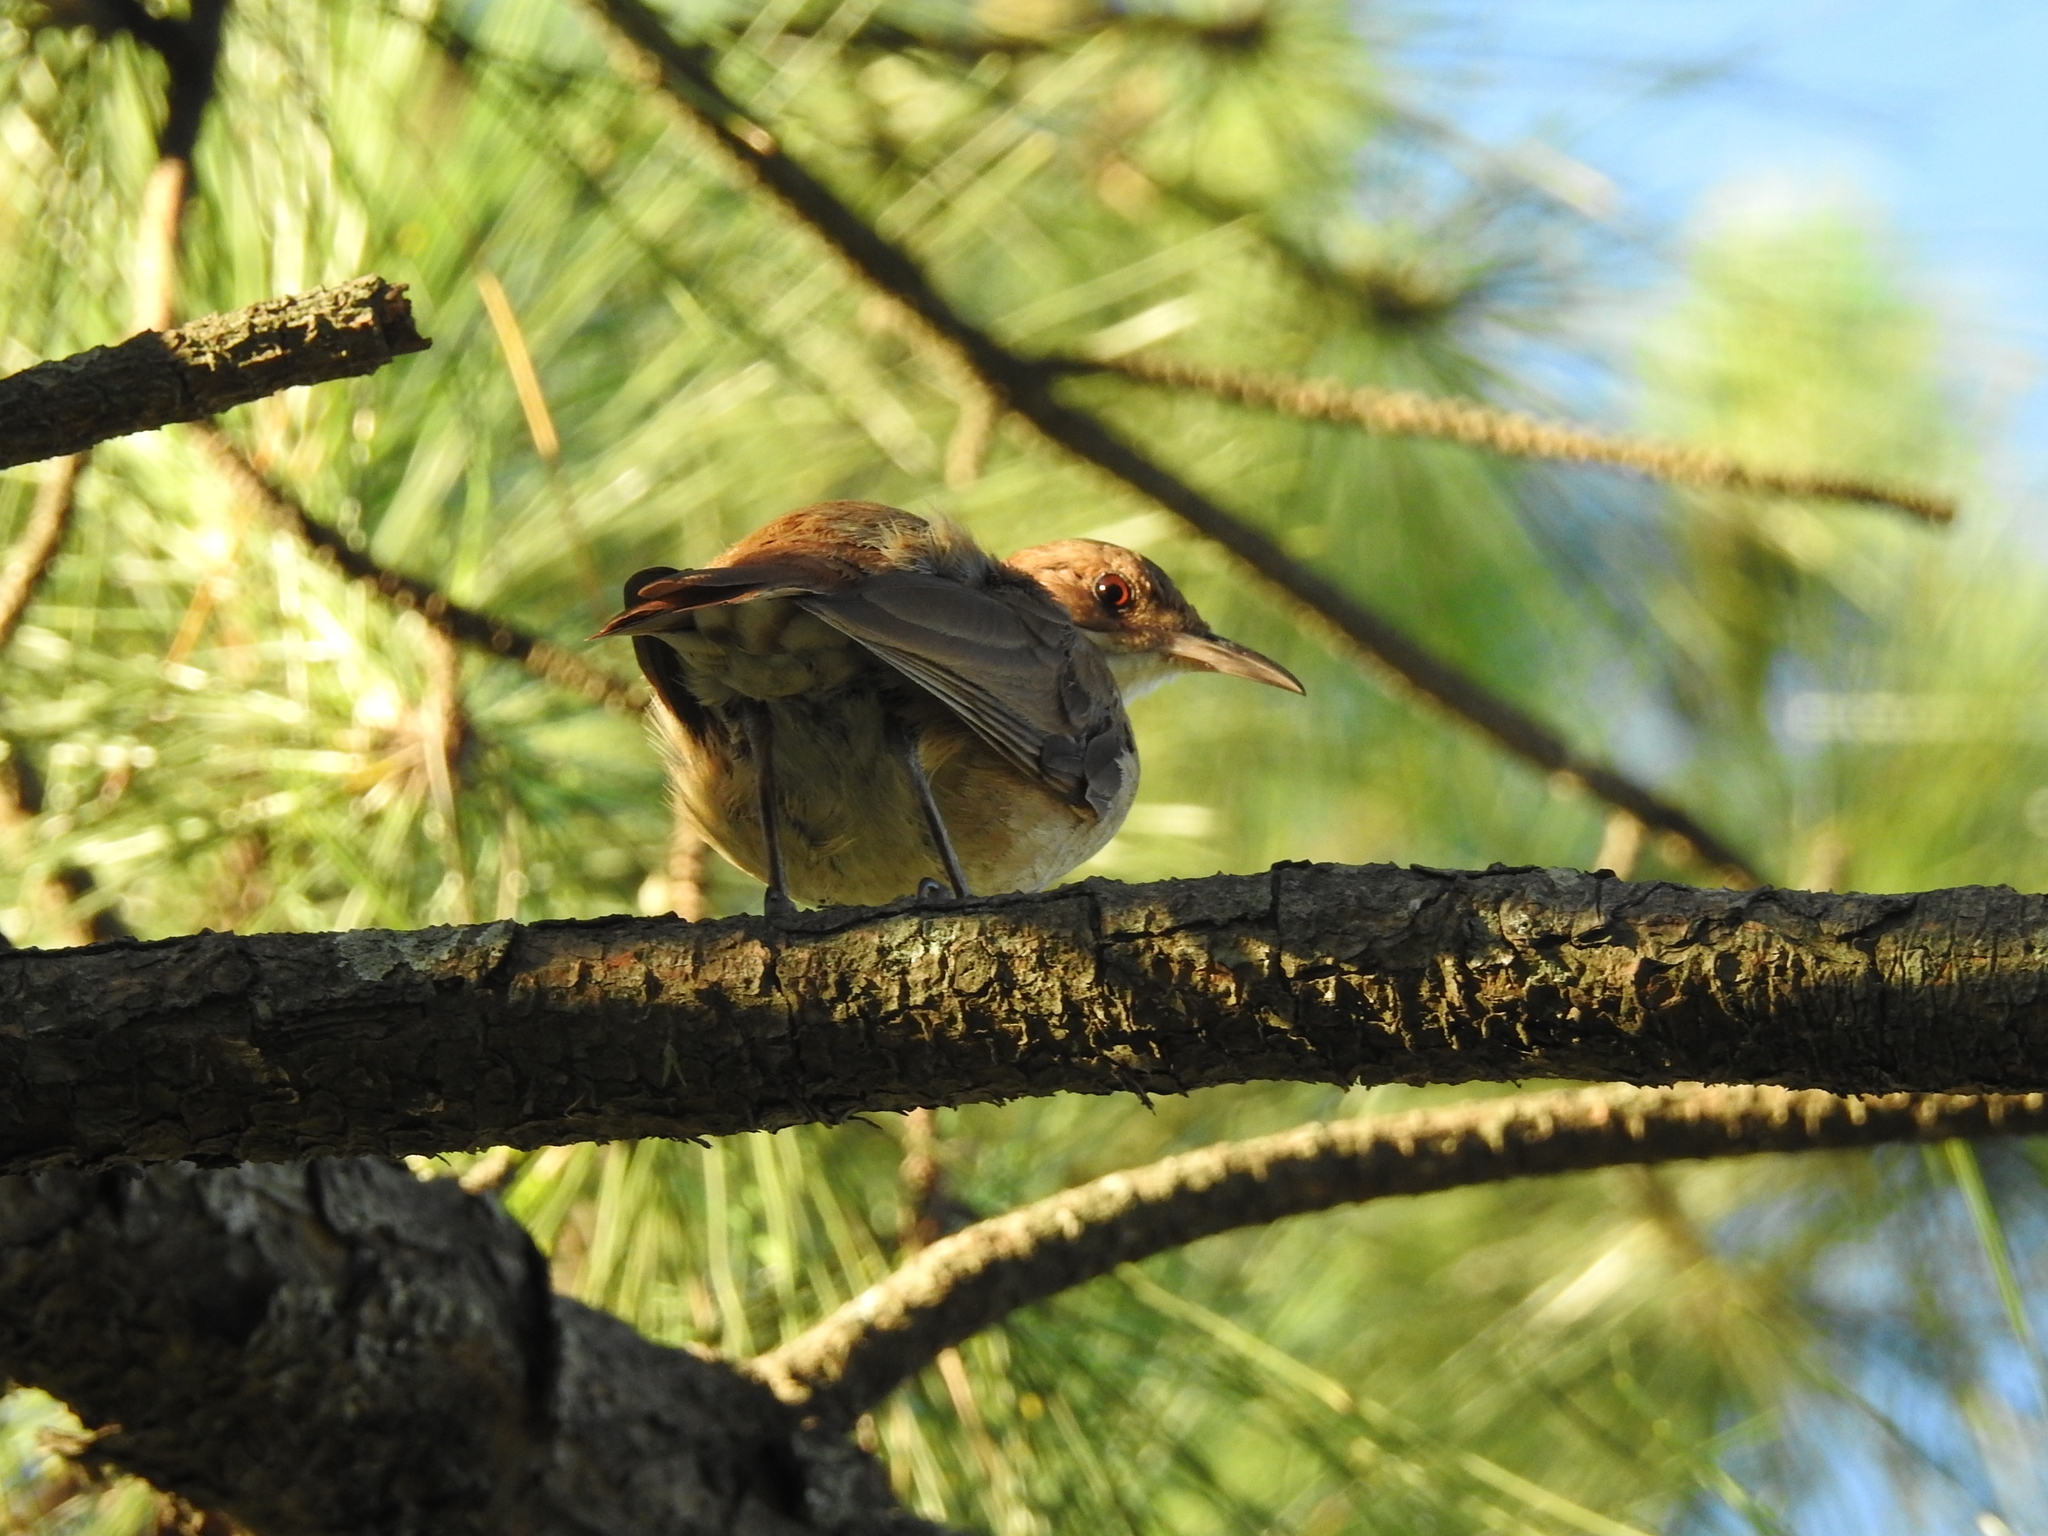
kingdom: Animalia
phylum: Chordata
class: Aves
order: Passeriformes
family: Furnariidae
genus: Furnarius
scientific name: Furnarius rufus
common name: Rufous hornero
